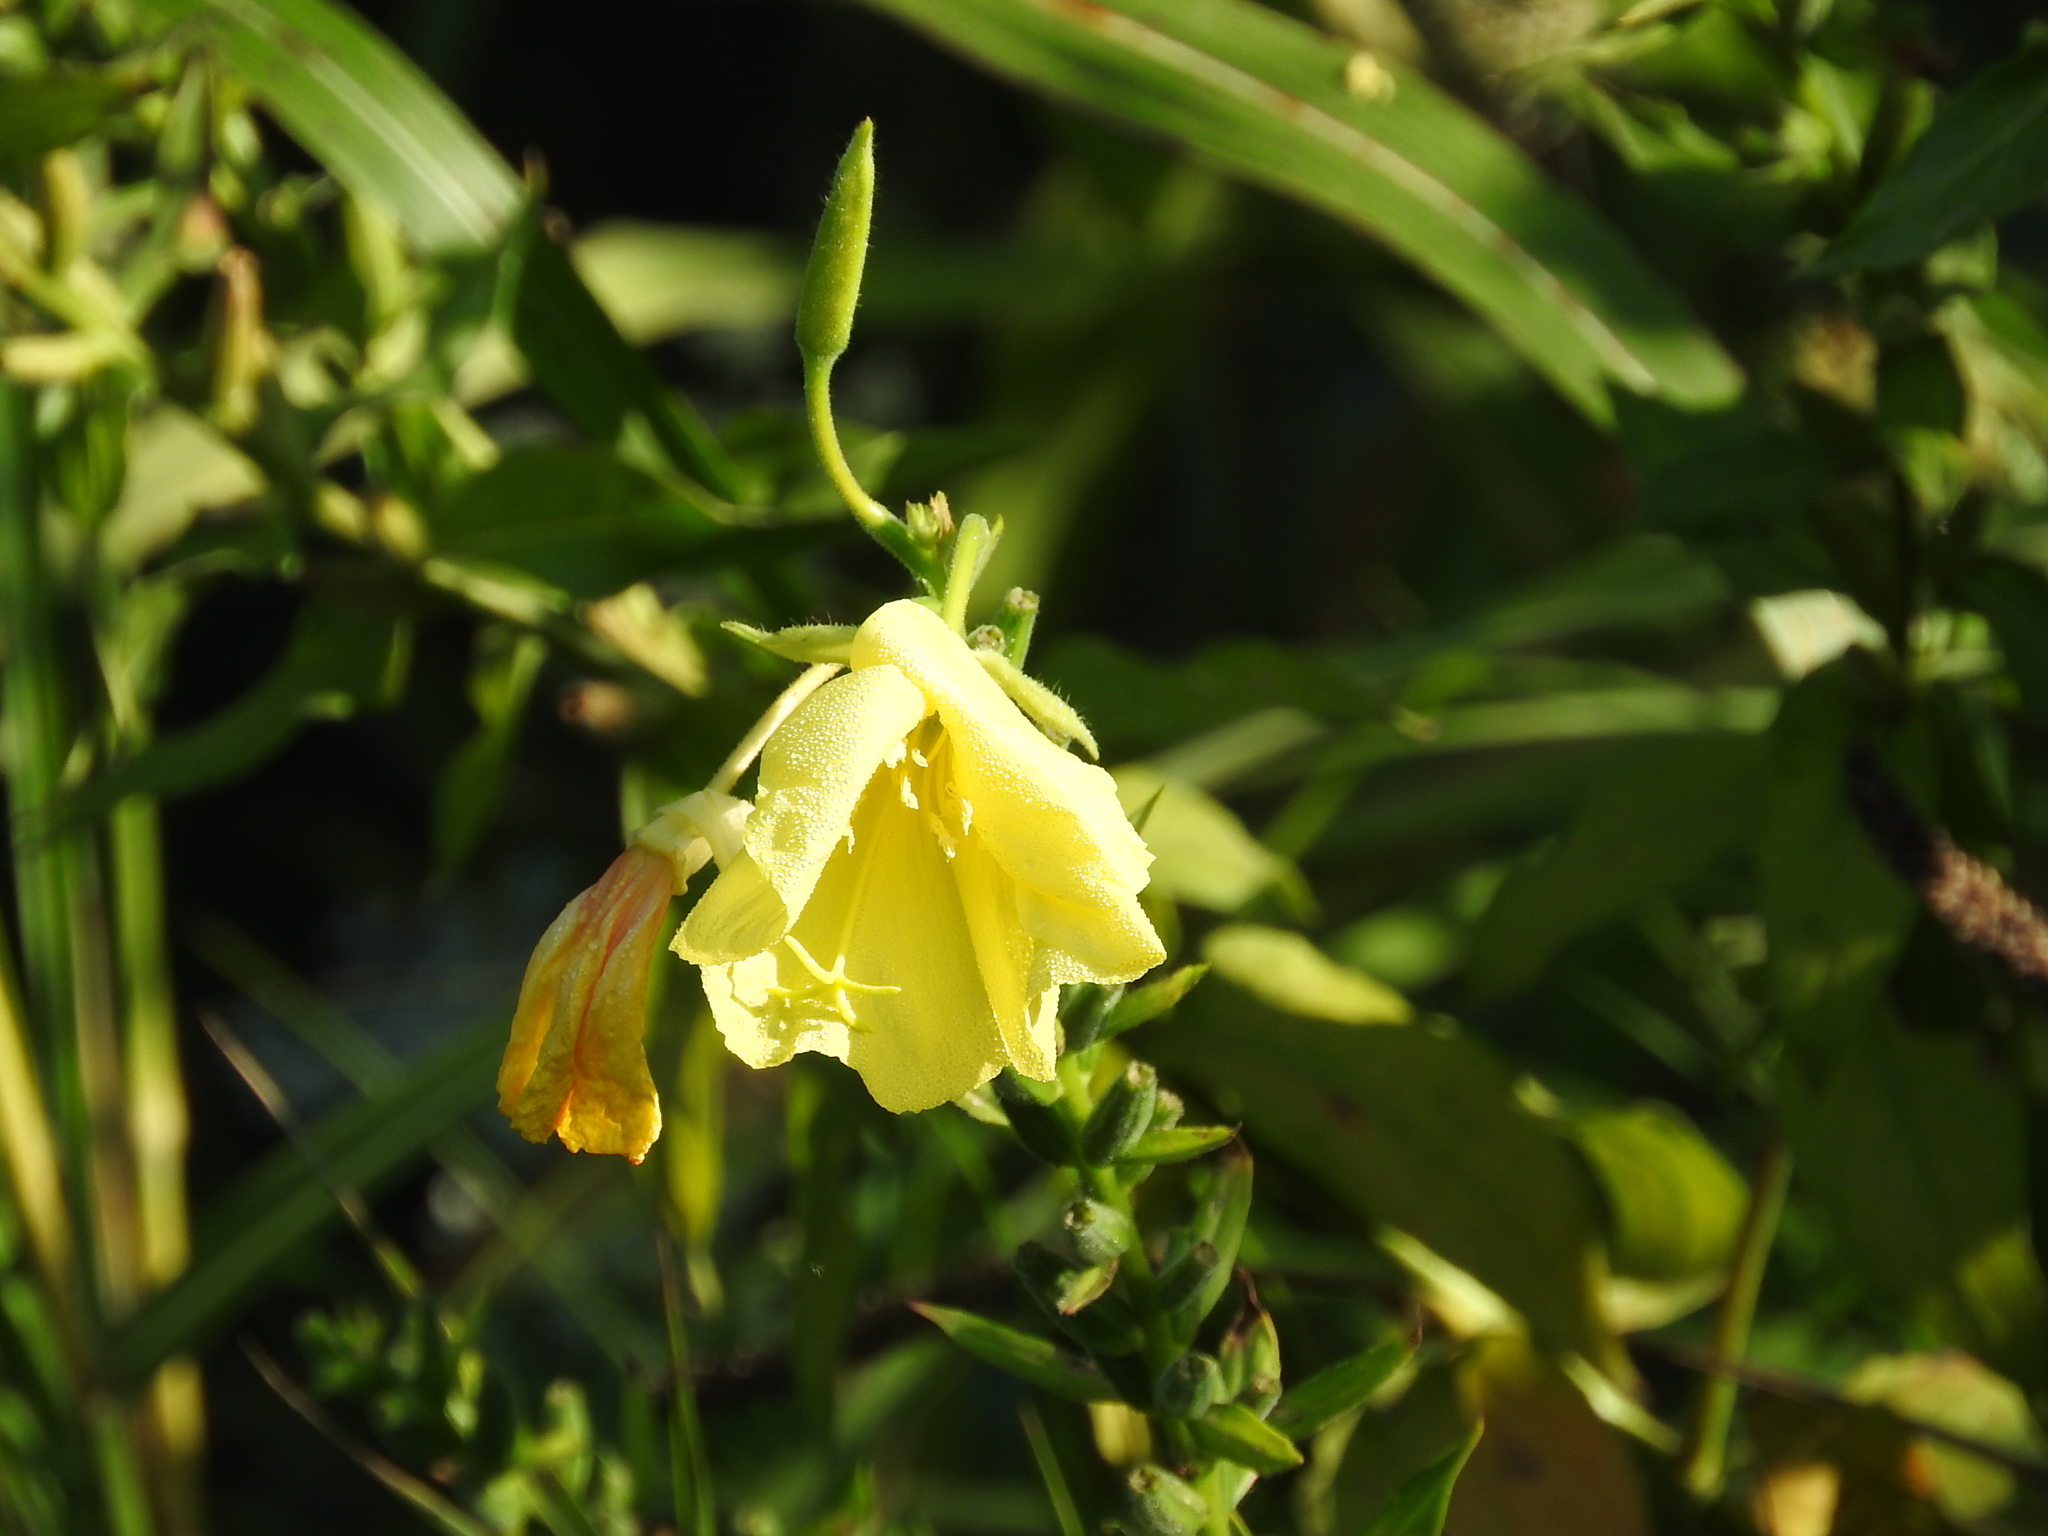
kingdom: Plantae
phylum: Tracheophyta
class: Magnoliopsida
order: Myrtales
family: Onagraceae
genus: Oenothera
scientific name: Oenothera oehlkersii
